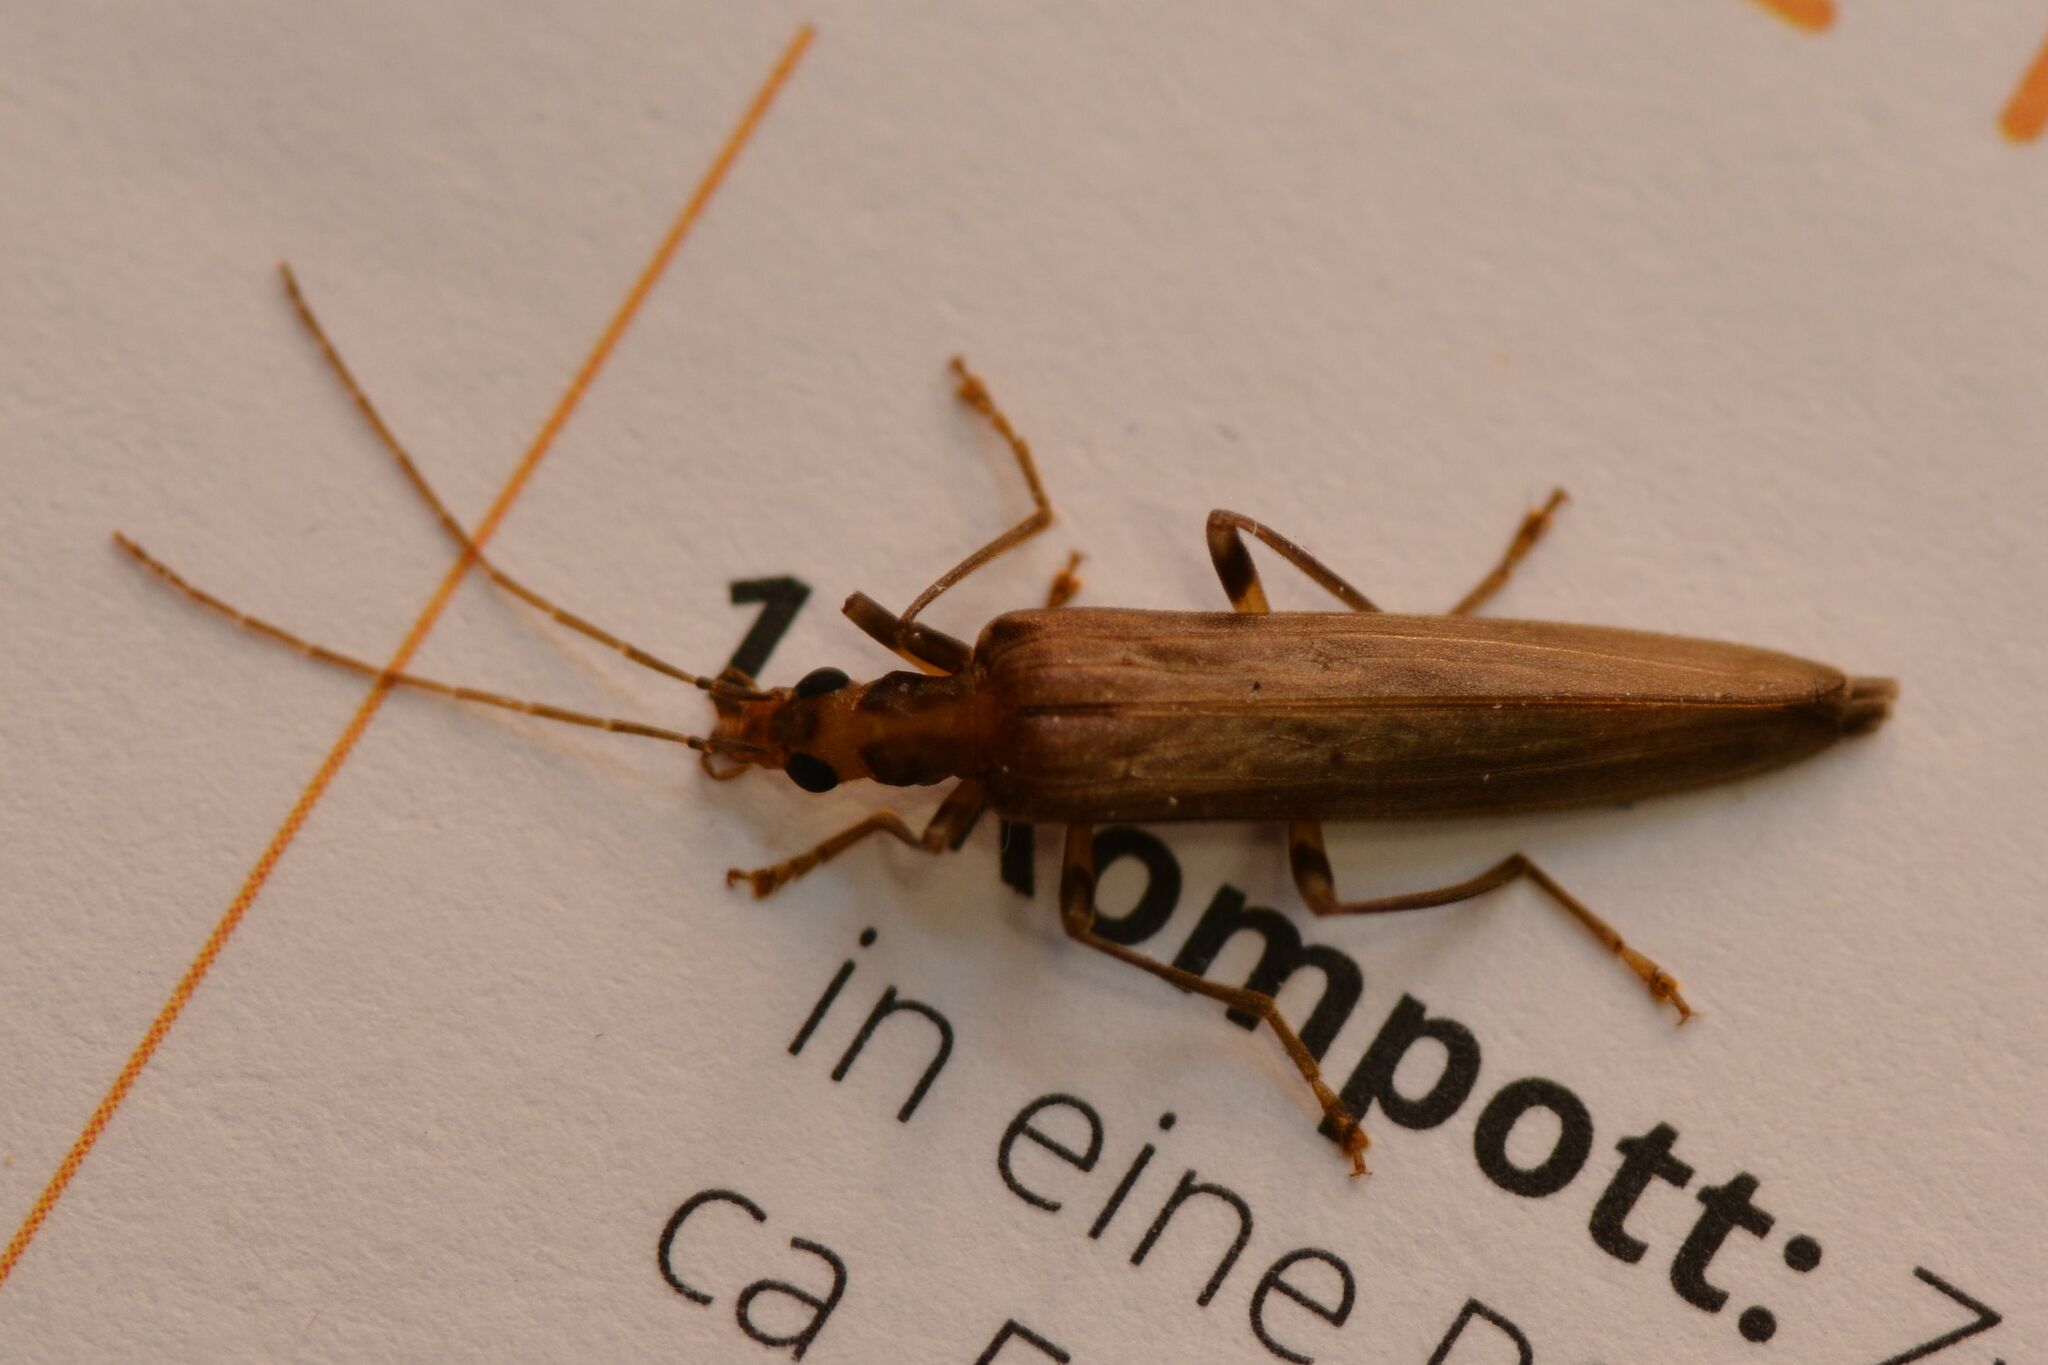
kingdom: Animalia
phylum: Arthropoda
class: Insecta
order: Coleoptera
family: Oedemeridae
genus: Oedemera
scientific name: Oedemera femoralis
